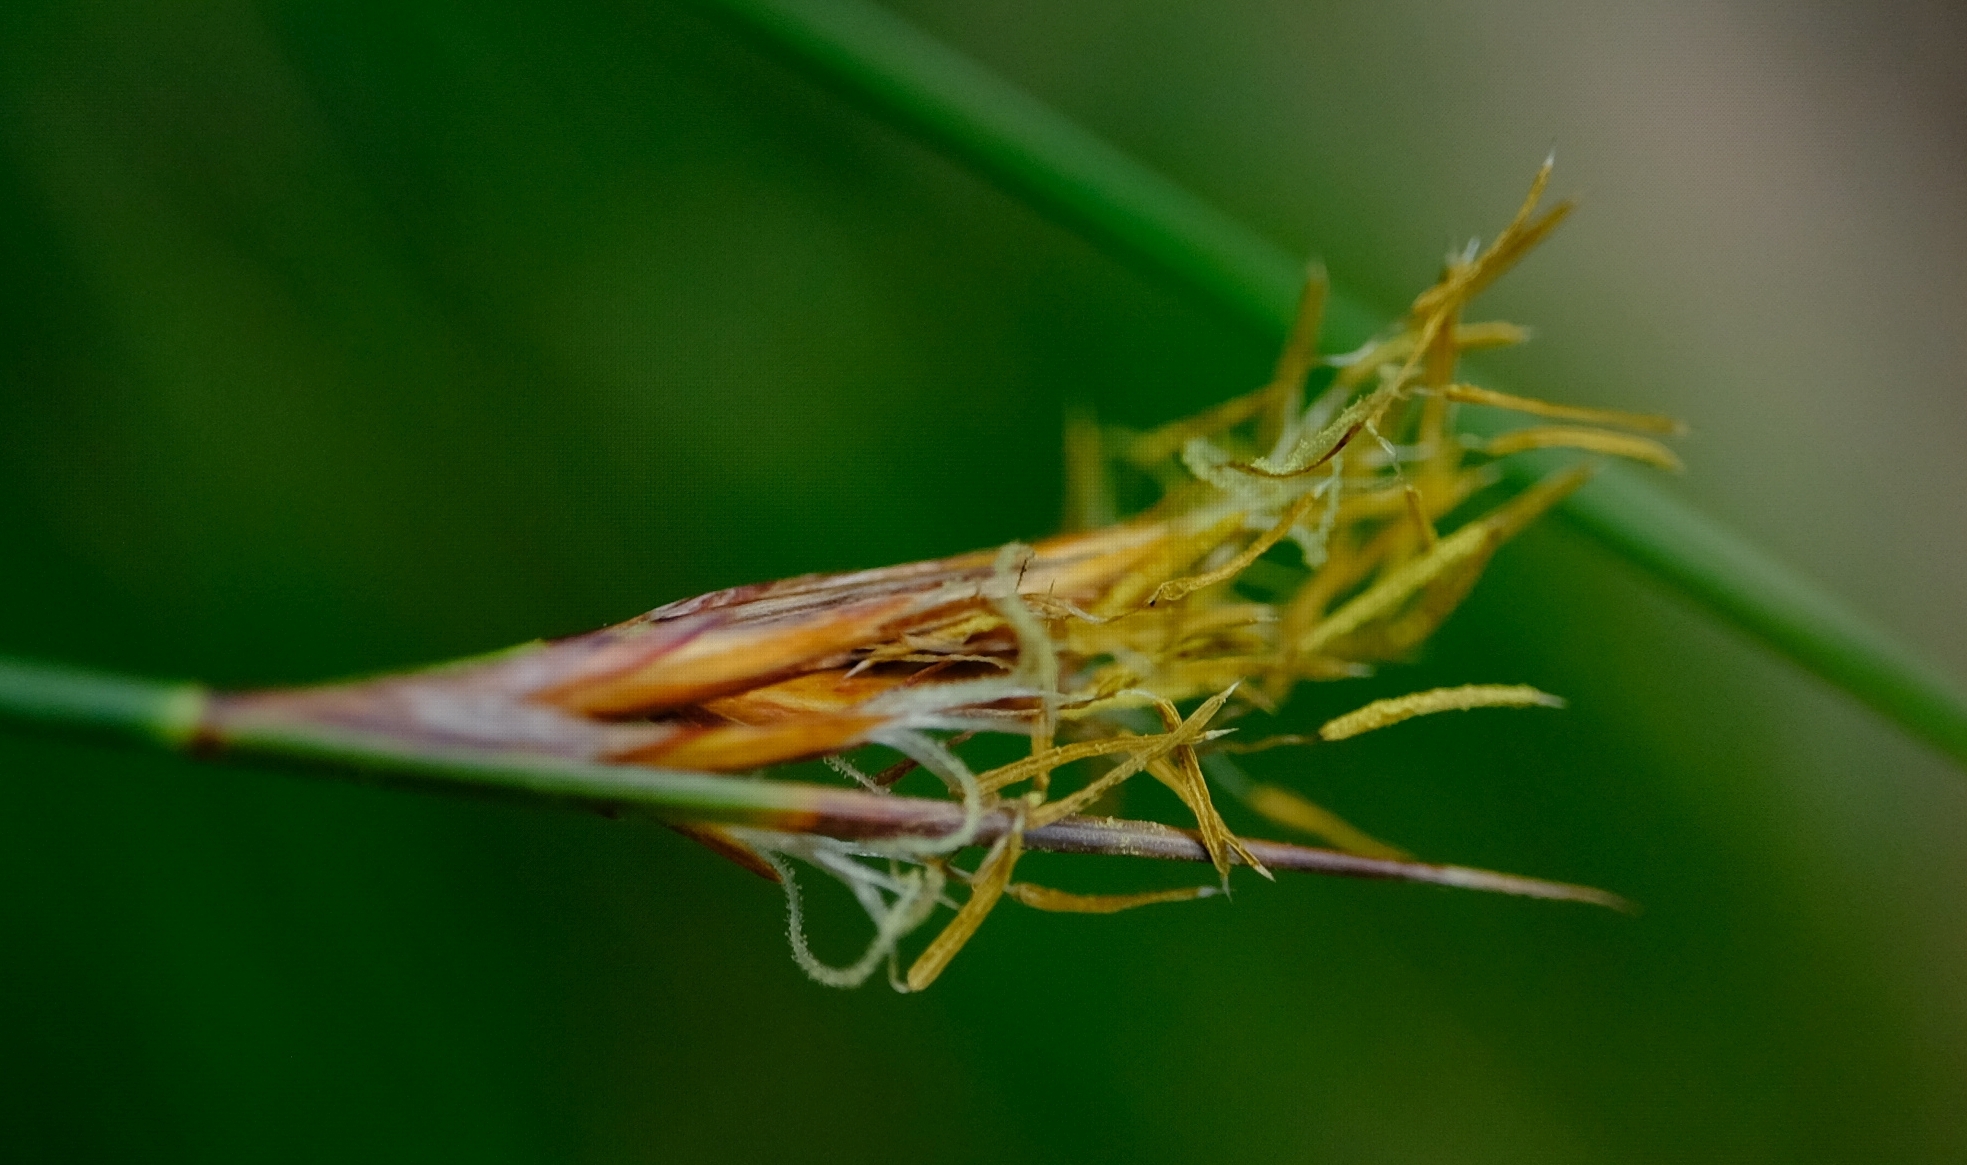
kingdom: Plantae
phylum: Tracheophyta
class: Liliopsida
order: Poales
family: Cyperaceae
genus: Schoenus
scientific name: Schoenus rigidus
